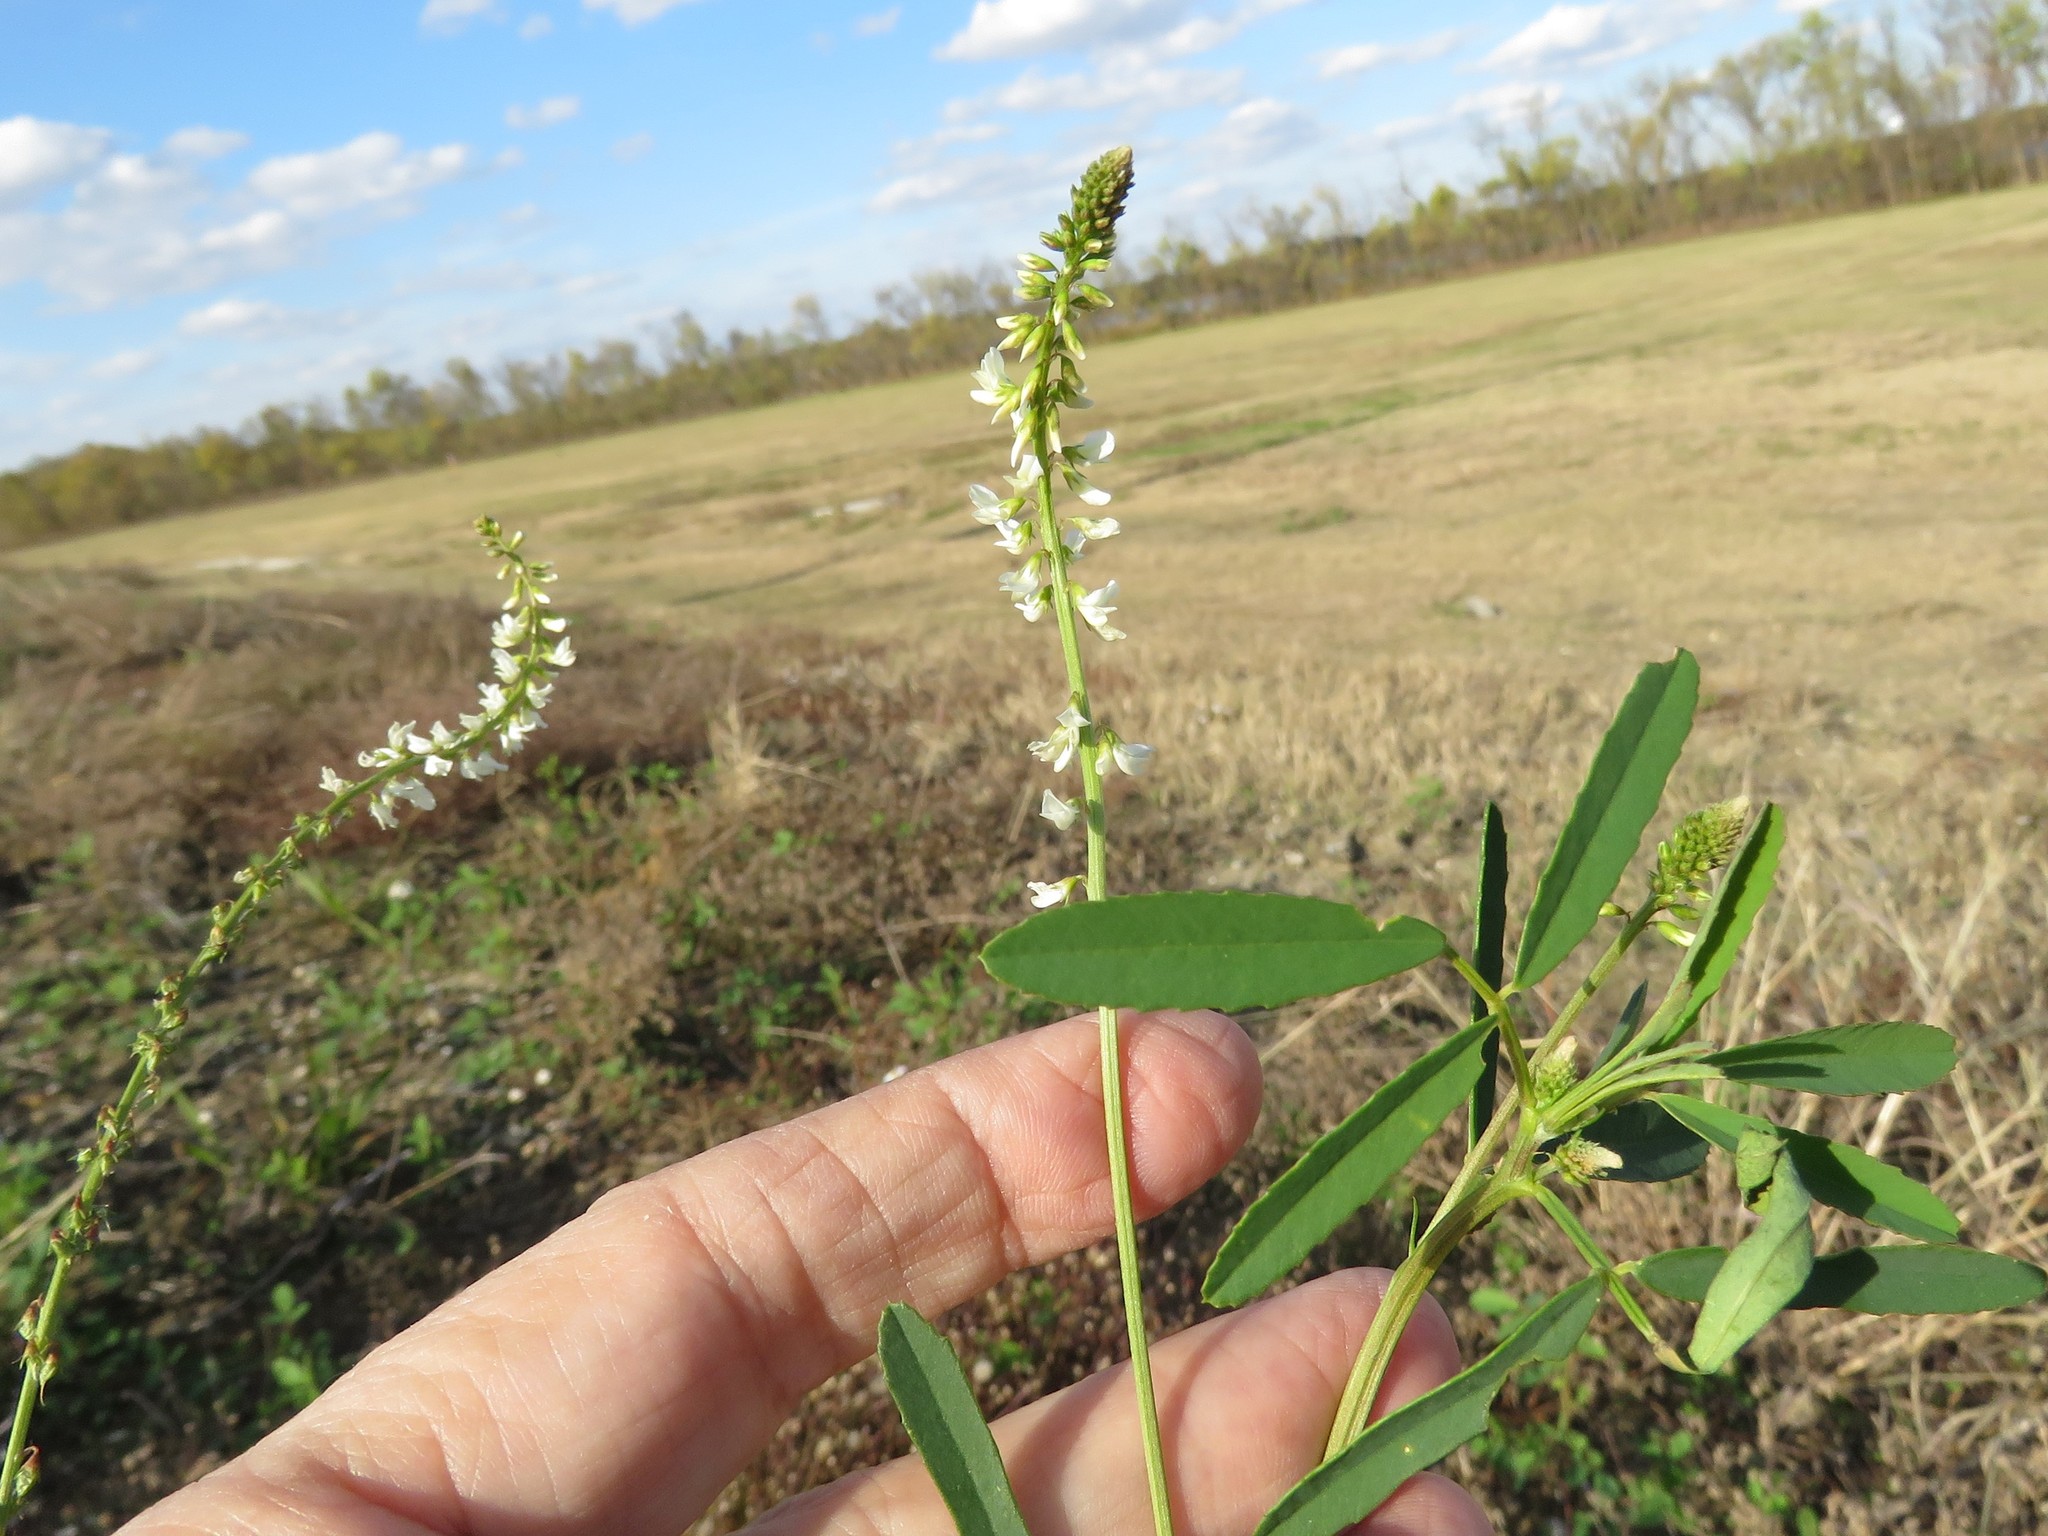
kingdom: Plantae
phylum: Tracheophyta
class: Magnoliopsida
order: Fabales
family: Fabaceae
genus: Melilotus
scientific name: Melilotus albus
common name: White melilot
